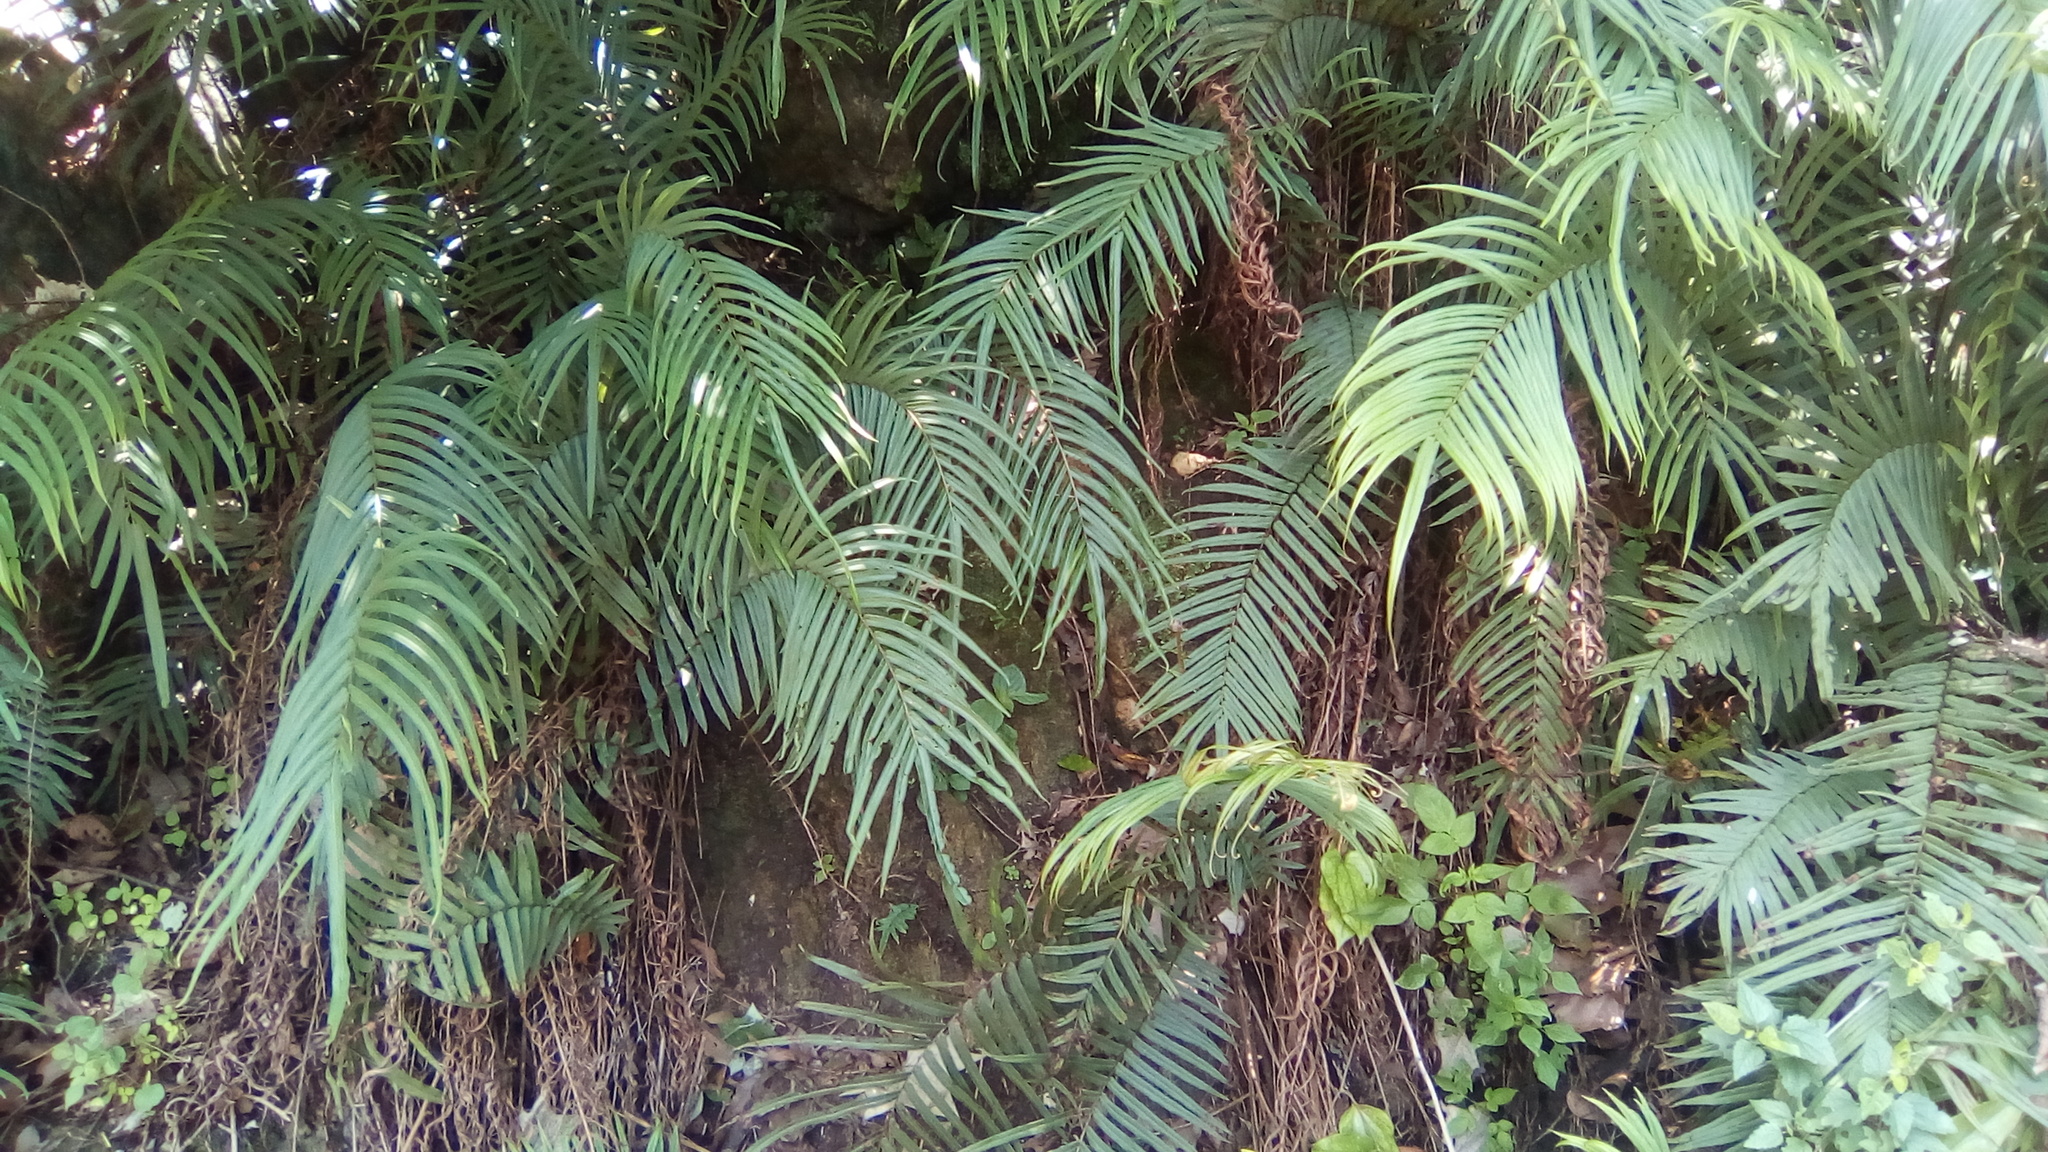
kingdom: Plantae
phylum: Tracheophyta
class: Polypodiopsida
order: Polypodiales
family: Pteridaceae
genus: Pteris
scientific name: Pteris vittata
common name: Ladder brake
